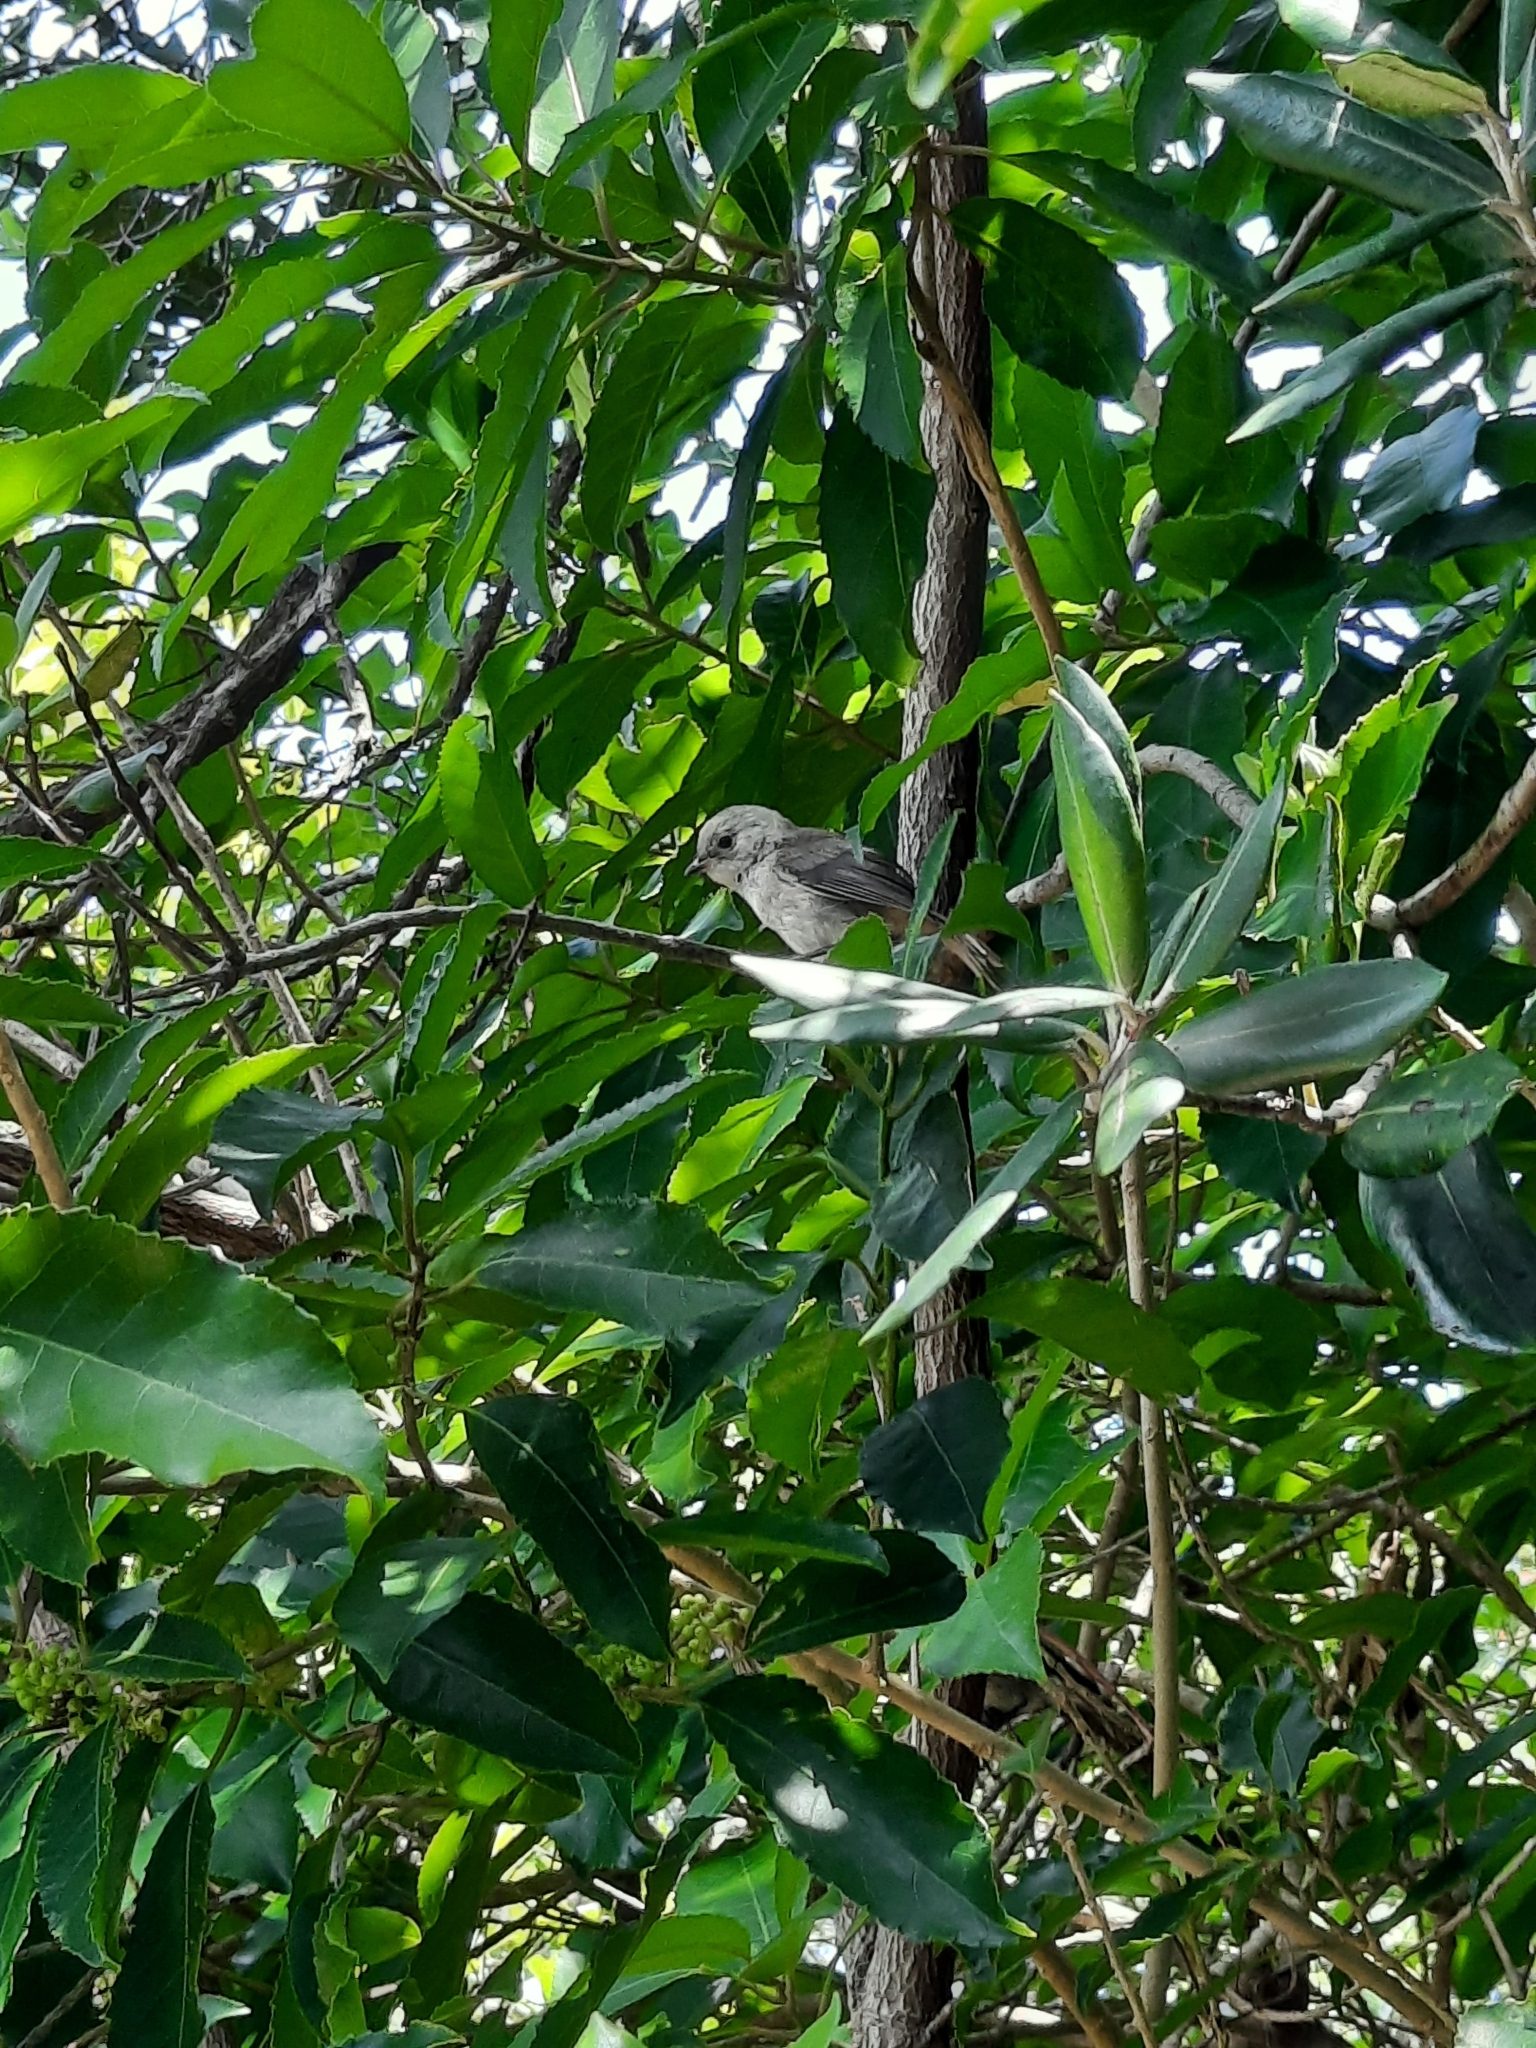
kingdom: Animalia
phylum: Chordata
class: Aves
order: Passeriformes
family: Acanthizidae
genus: Mohoua
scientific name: Mohoua albicilla
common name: Whitehead
